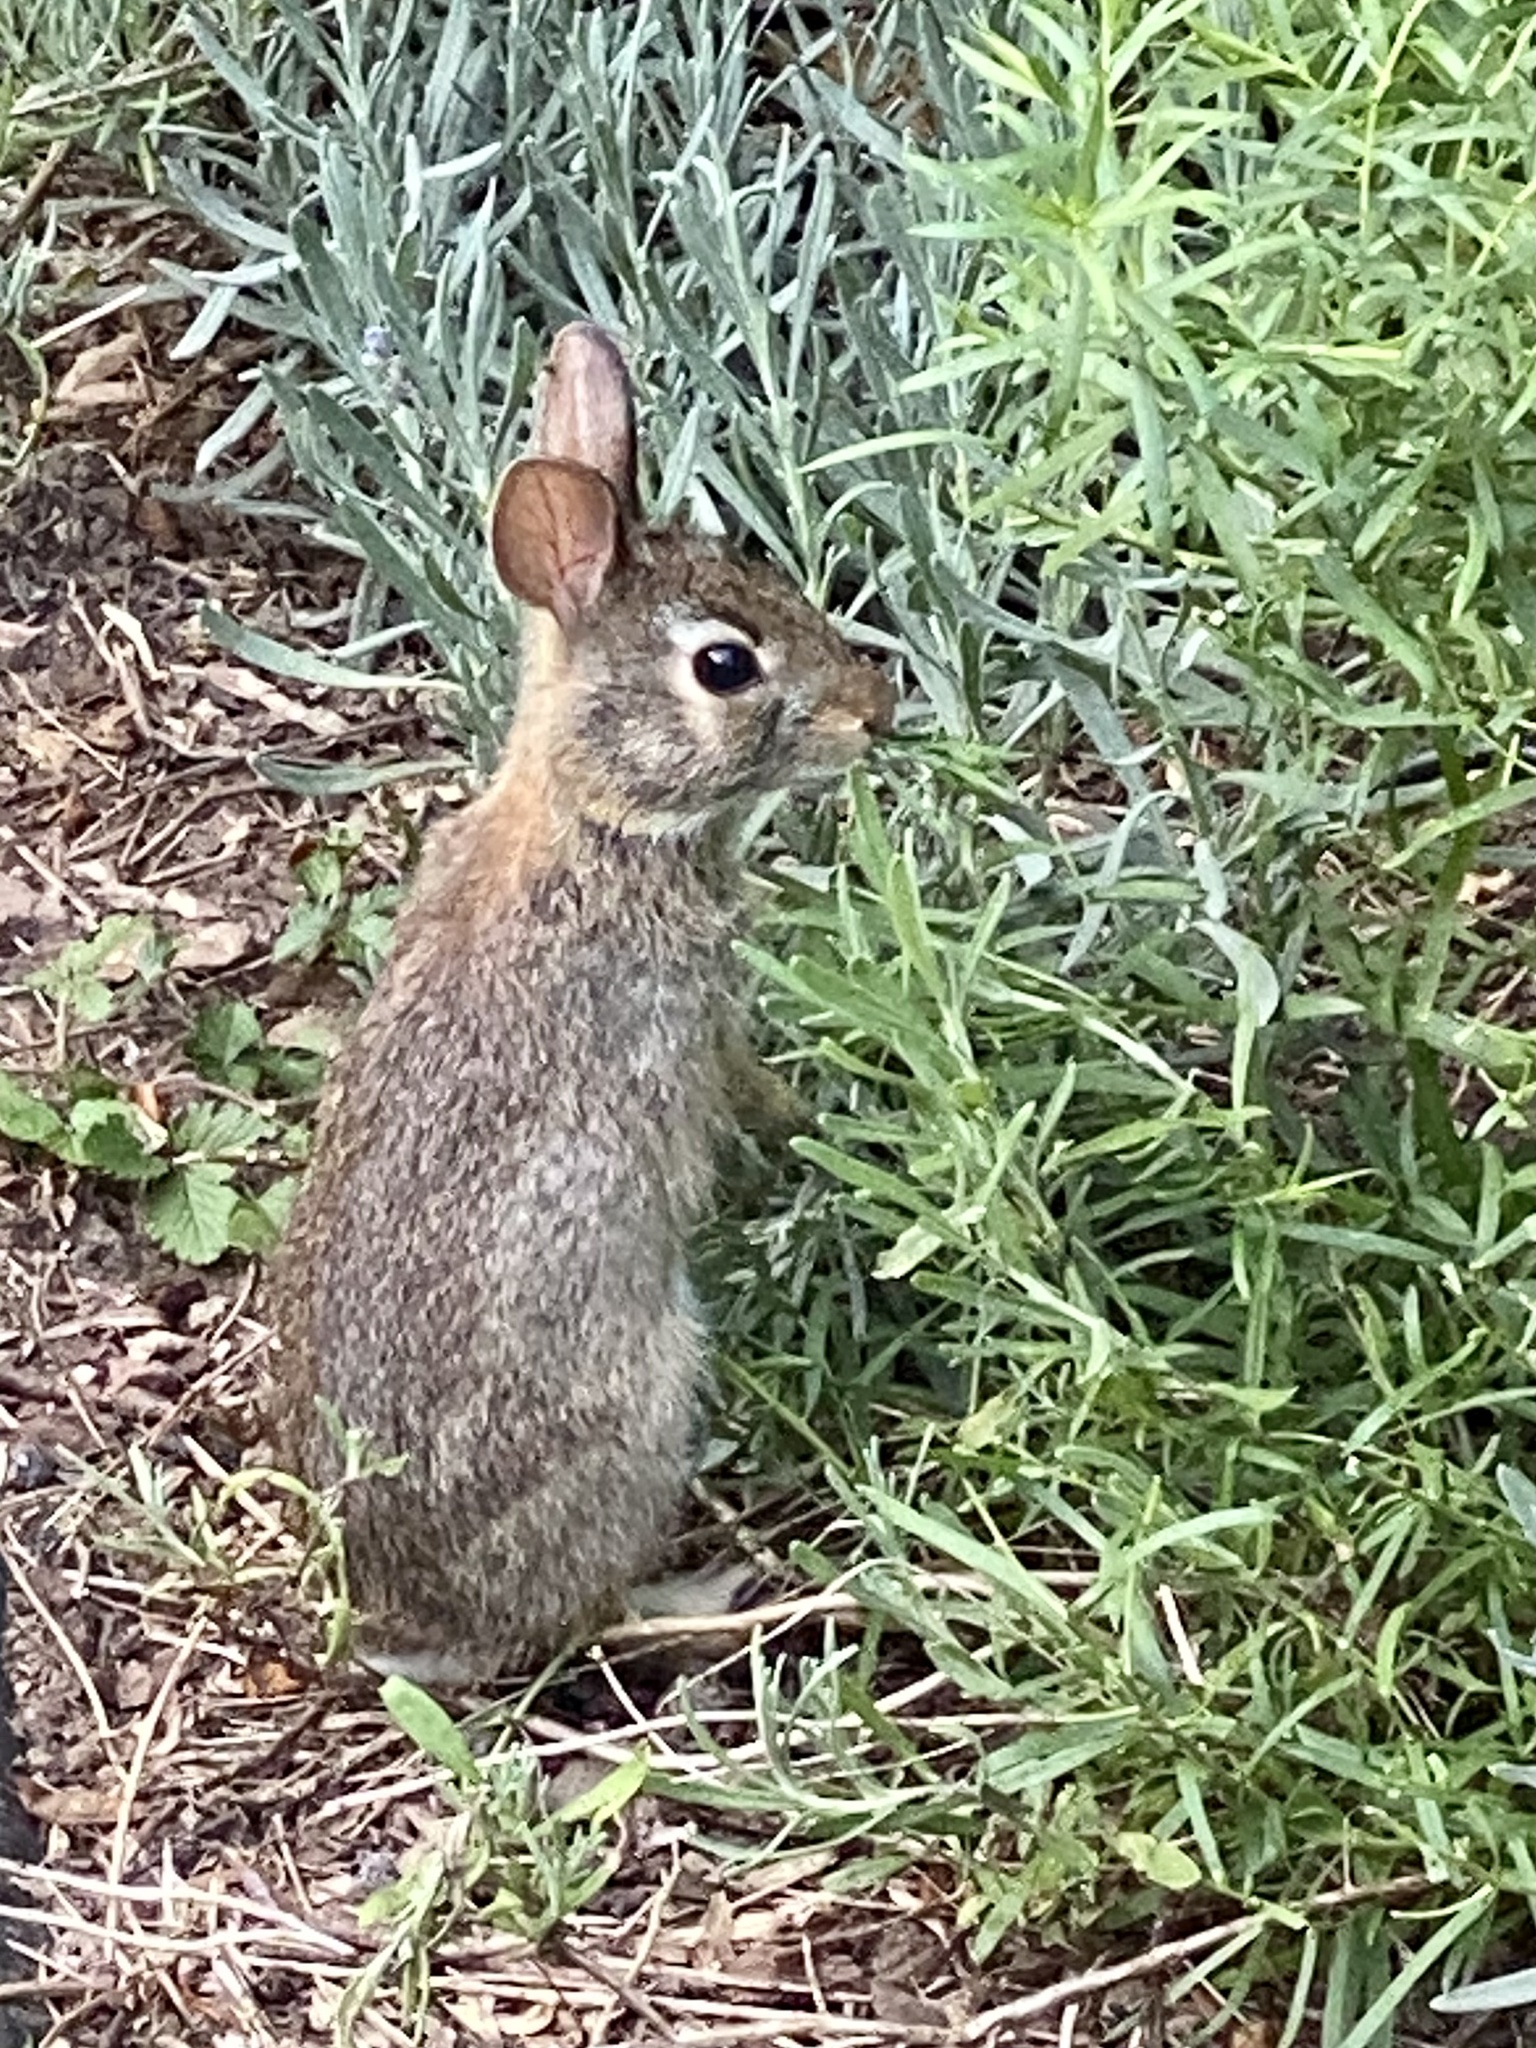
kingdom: Animalia
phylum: Chordata
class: Mammalia
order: Lagomorpha
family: Leporidae
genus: Sylvilagus
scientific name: Sylvilagus floridanus
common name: Eastern cottontail
